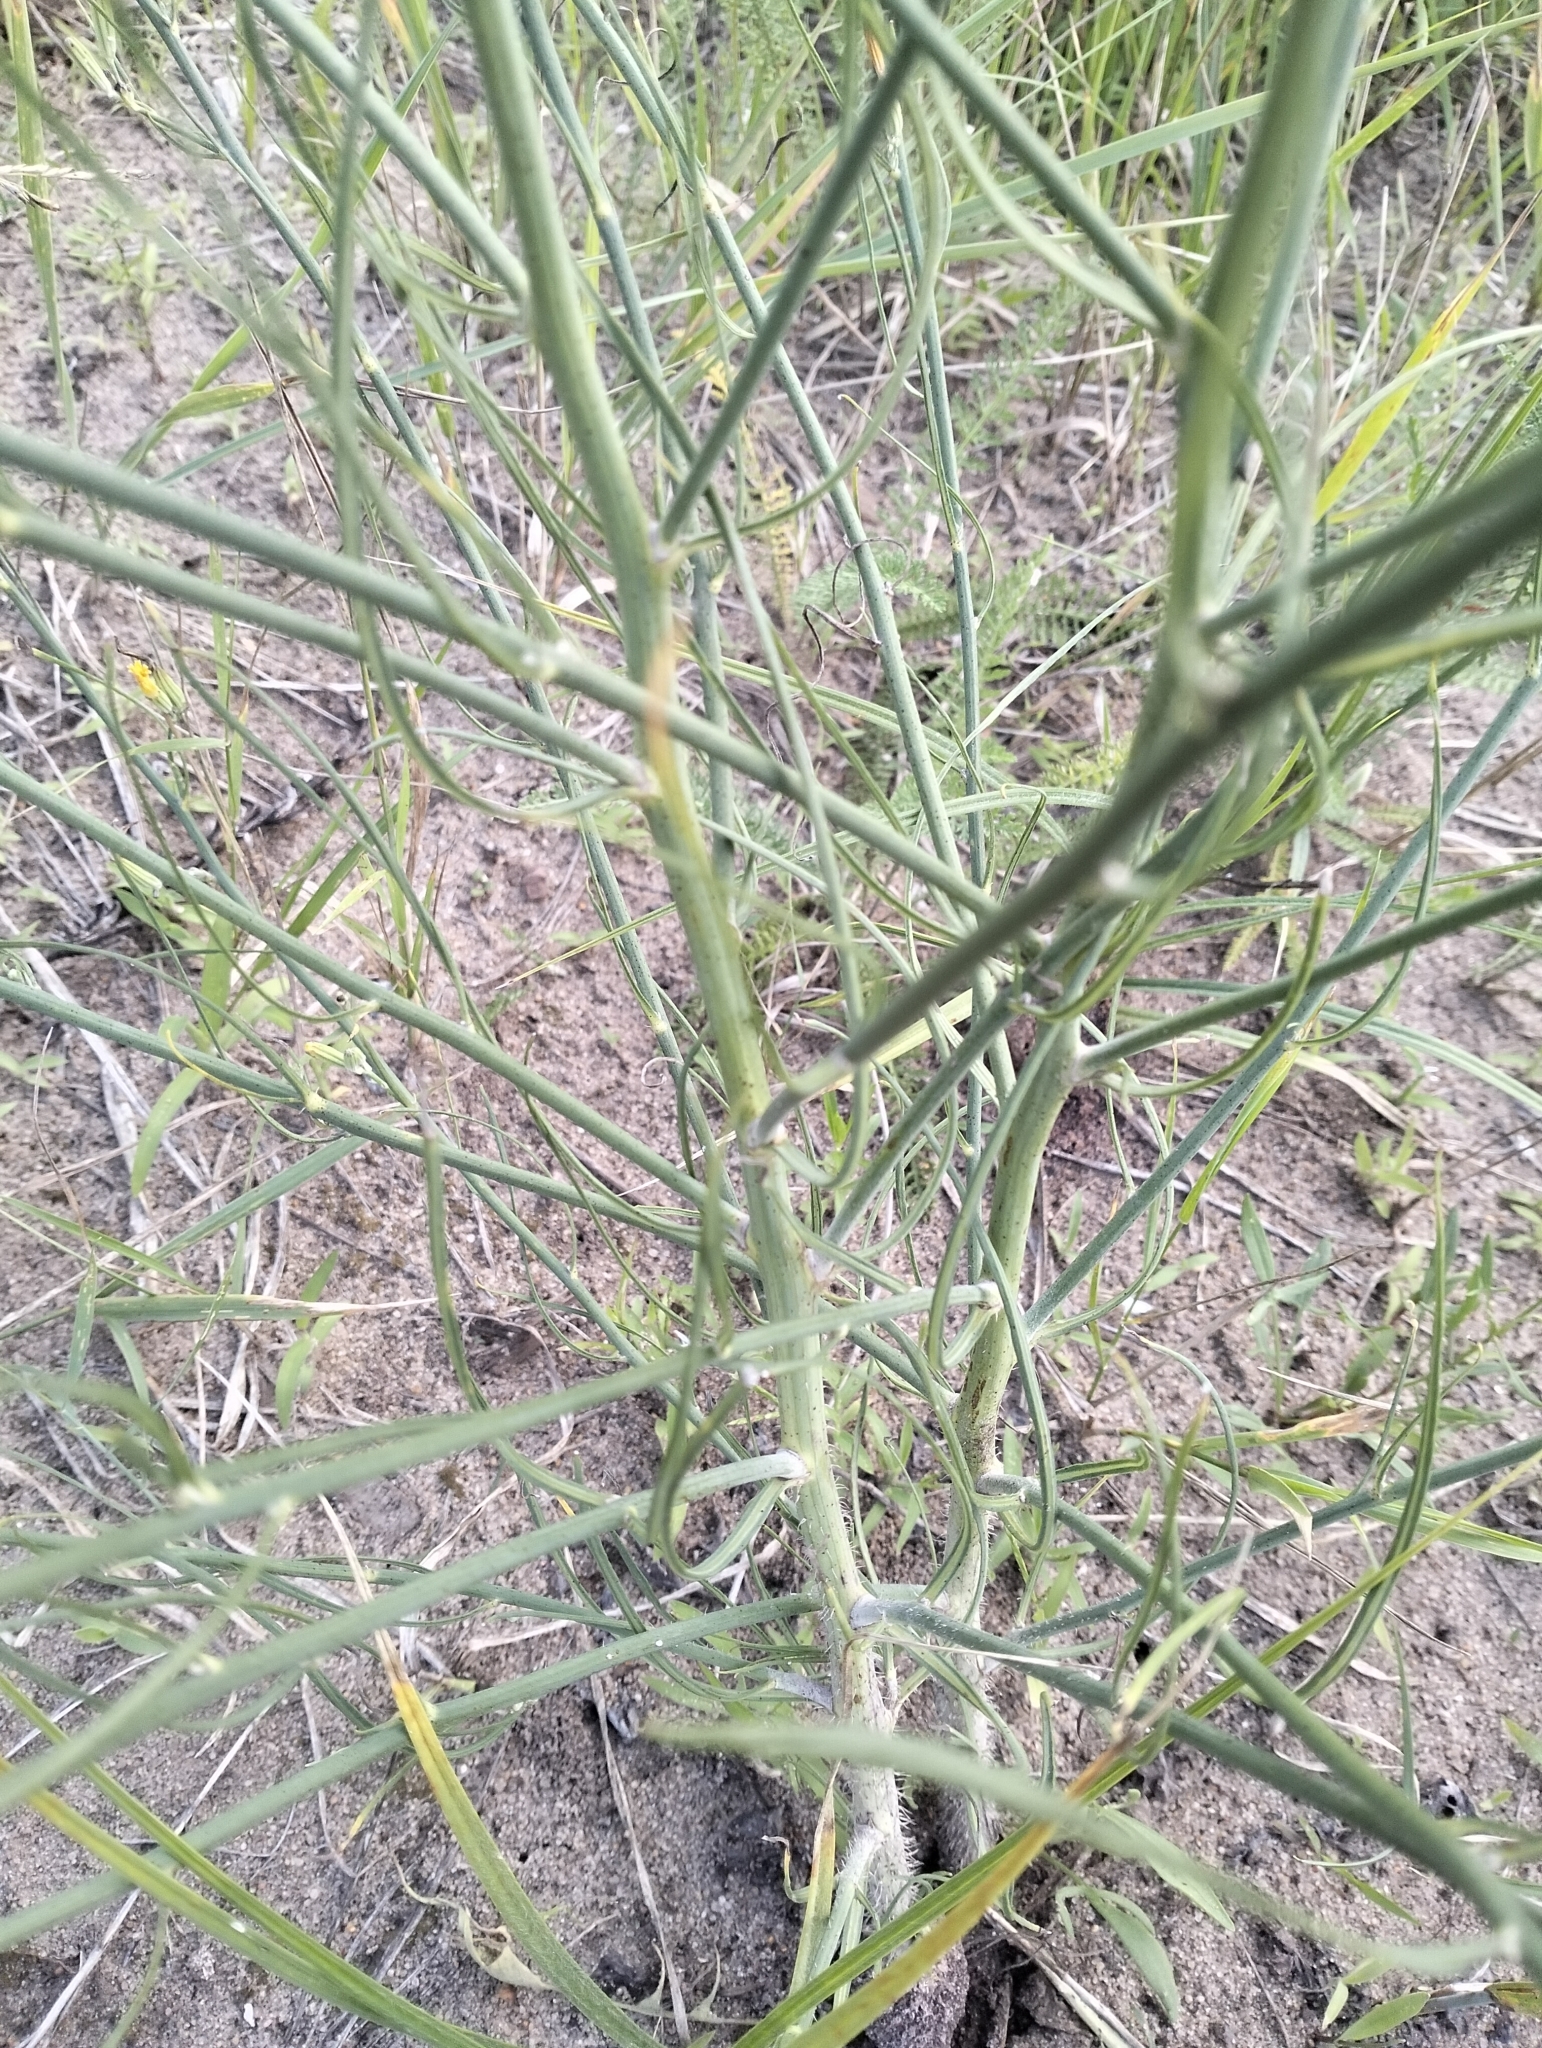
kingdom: Plantae
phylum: Tracheophyta
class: Magnoliopsida
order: Asterales
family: Asteraceae
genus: Chondrilla
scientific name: Chondrilla juncea
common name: Skeleton weed
